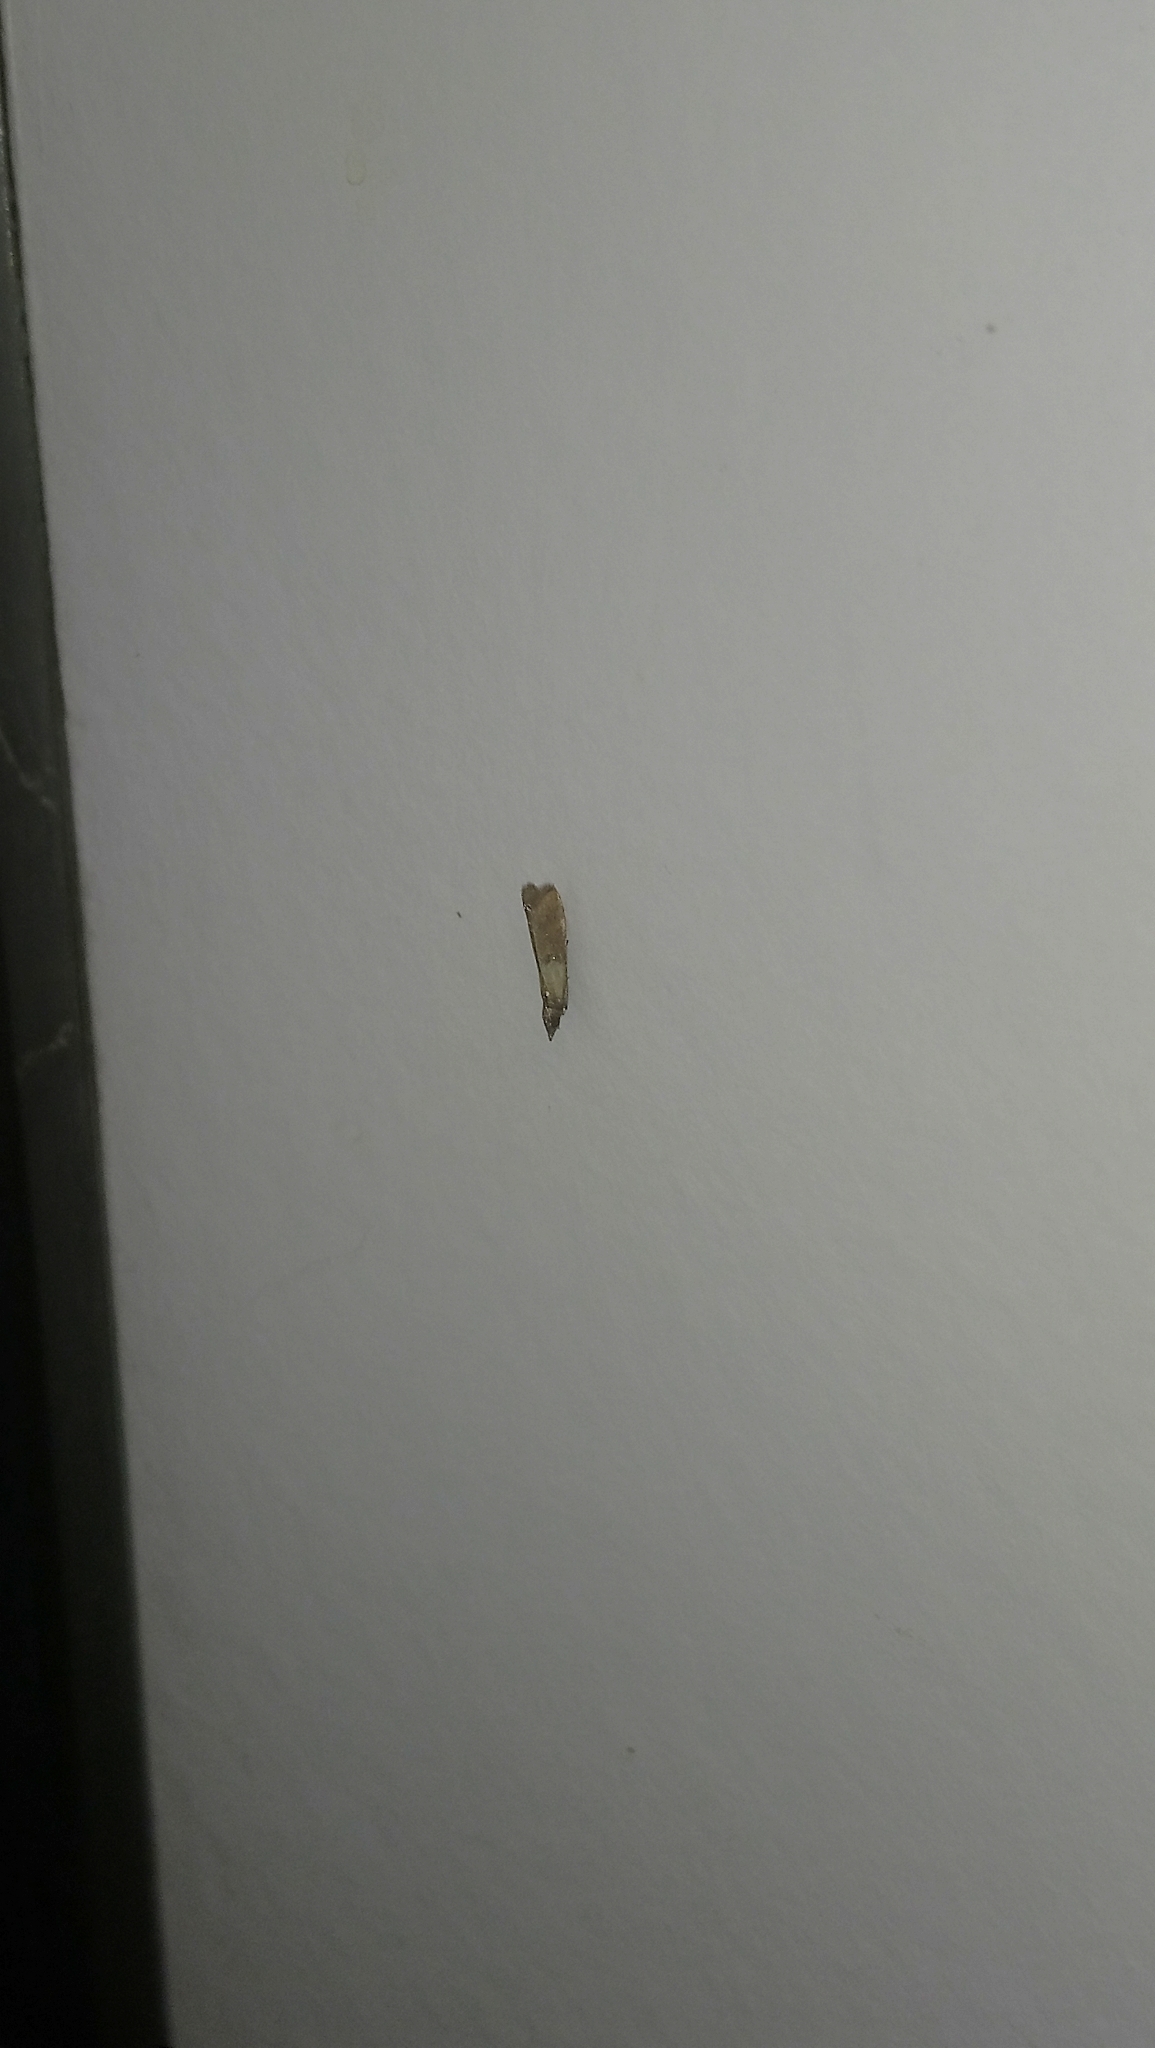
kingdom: Animalia
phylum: Arthropoda
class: Insecta
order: Lepidoptera
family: Pyralidae
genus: Plodia
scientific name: Plodia interpunctella
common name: Indian meal moth
